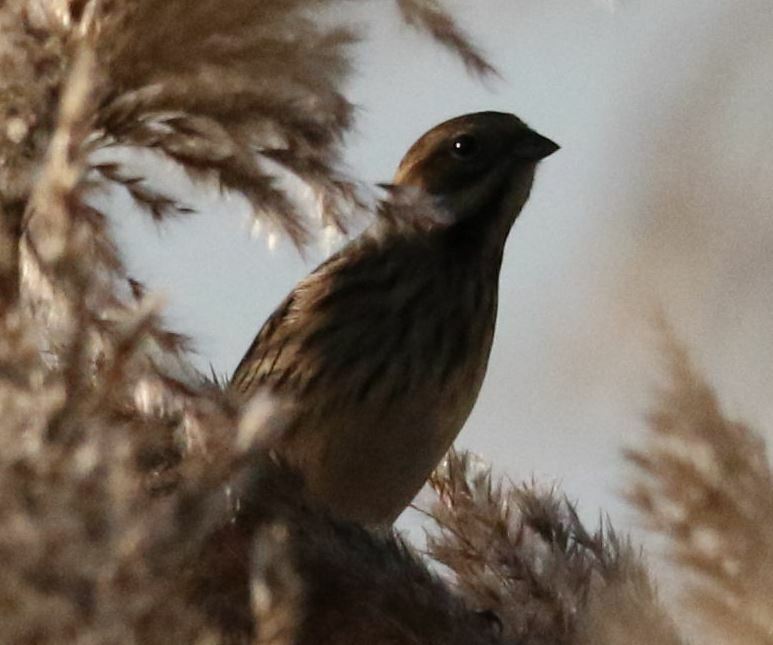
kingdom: Animalia
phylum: Chordata
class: Aves
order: Passeriformes
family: Emberizidae
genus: Emberiza
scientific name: Emberiza schoeniclus
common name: Reed bunting
